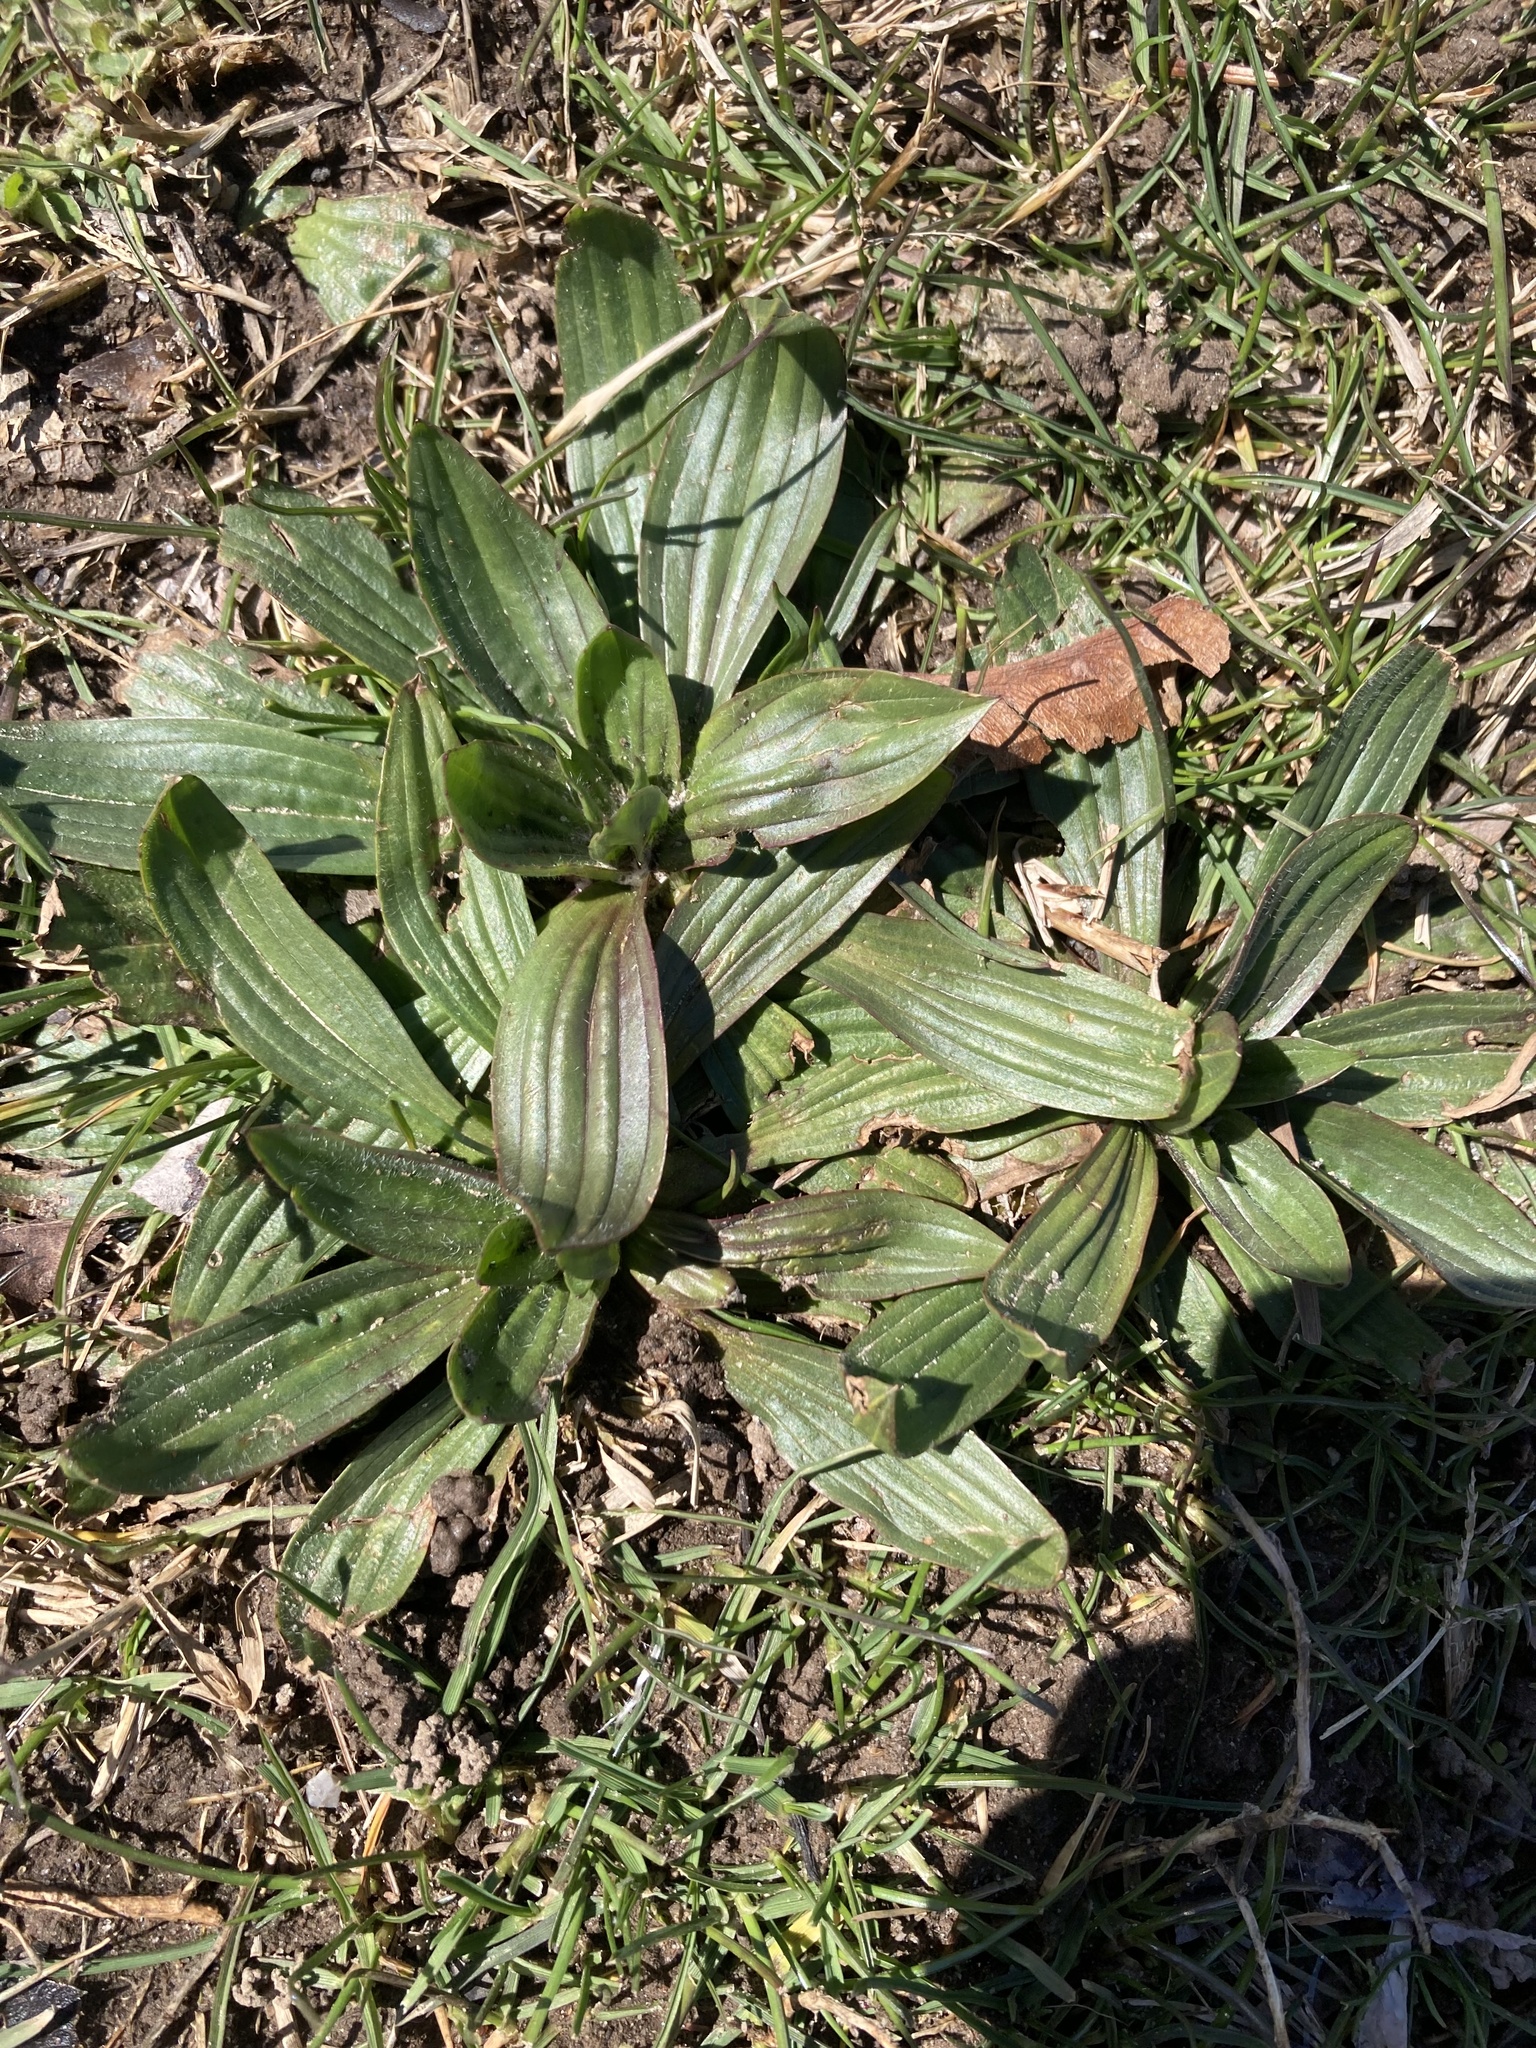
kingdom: Plantae
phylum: Tracheophyta
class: Magnoliopsida
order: Lamiales
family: Plantaginaceae
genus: Plantago
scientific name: Plantago lanceolata
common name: Ribwort plantain
